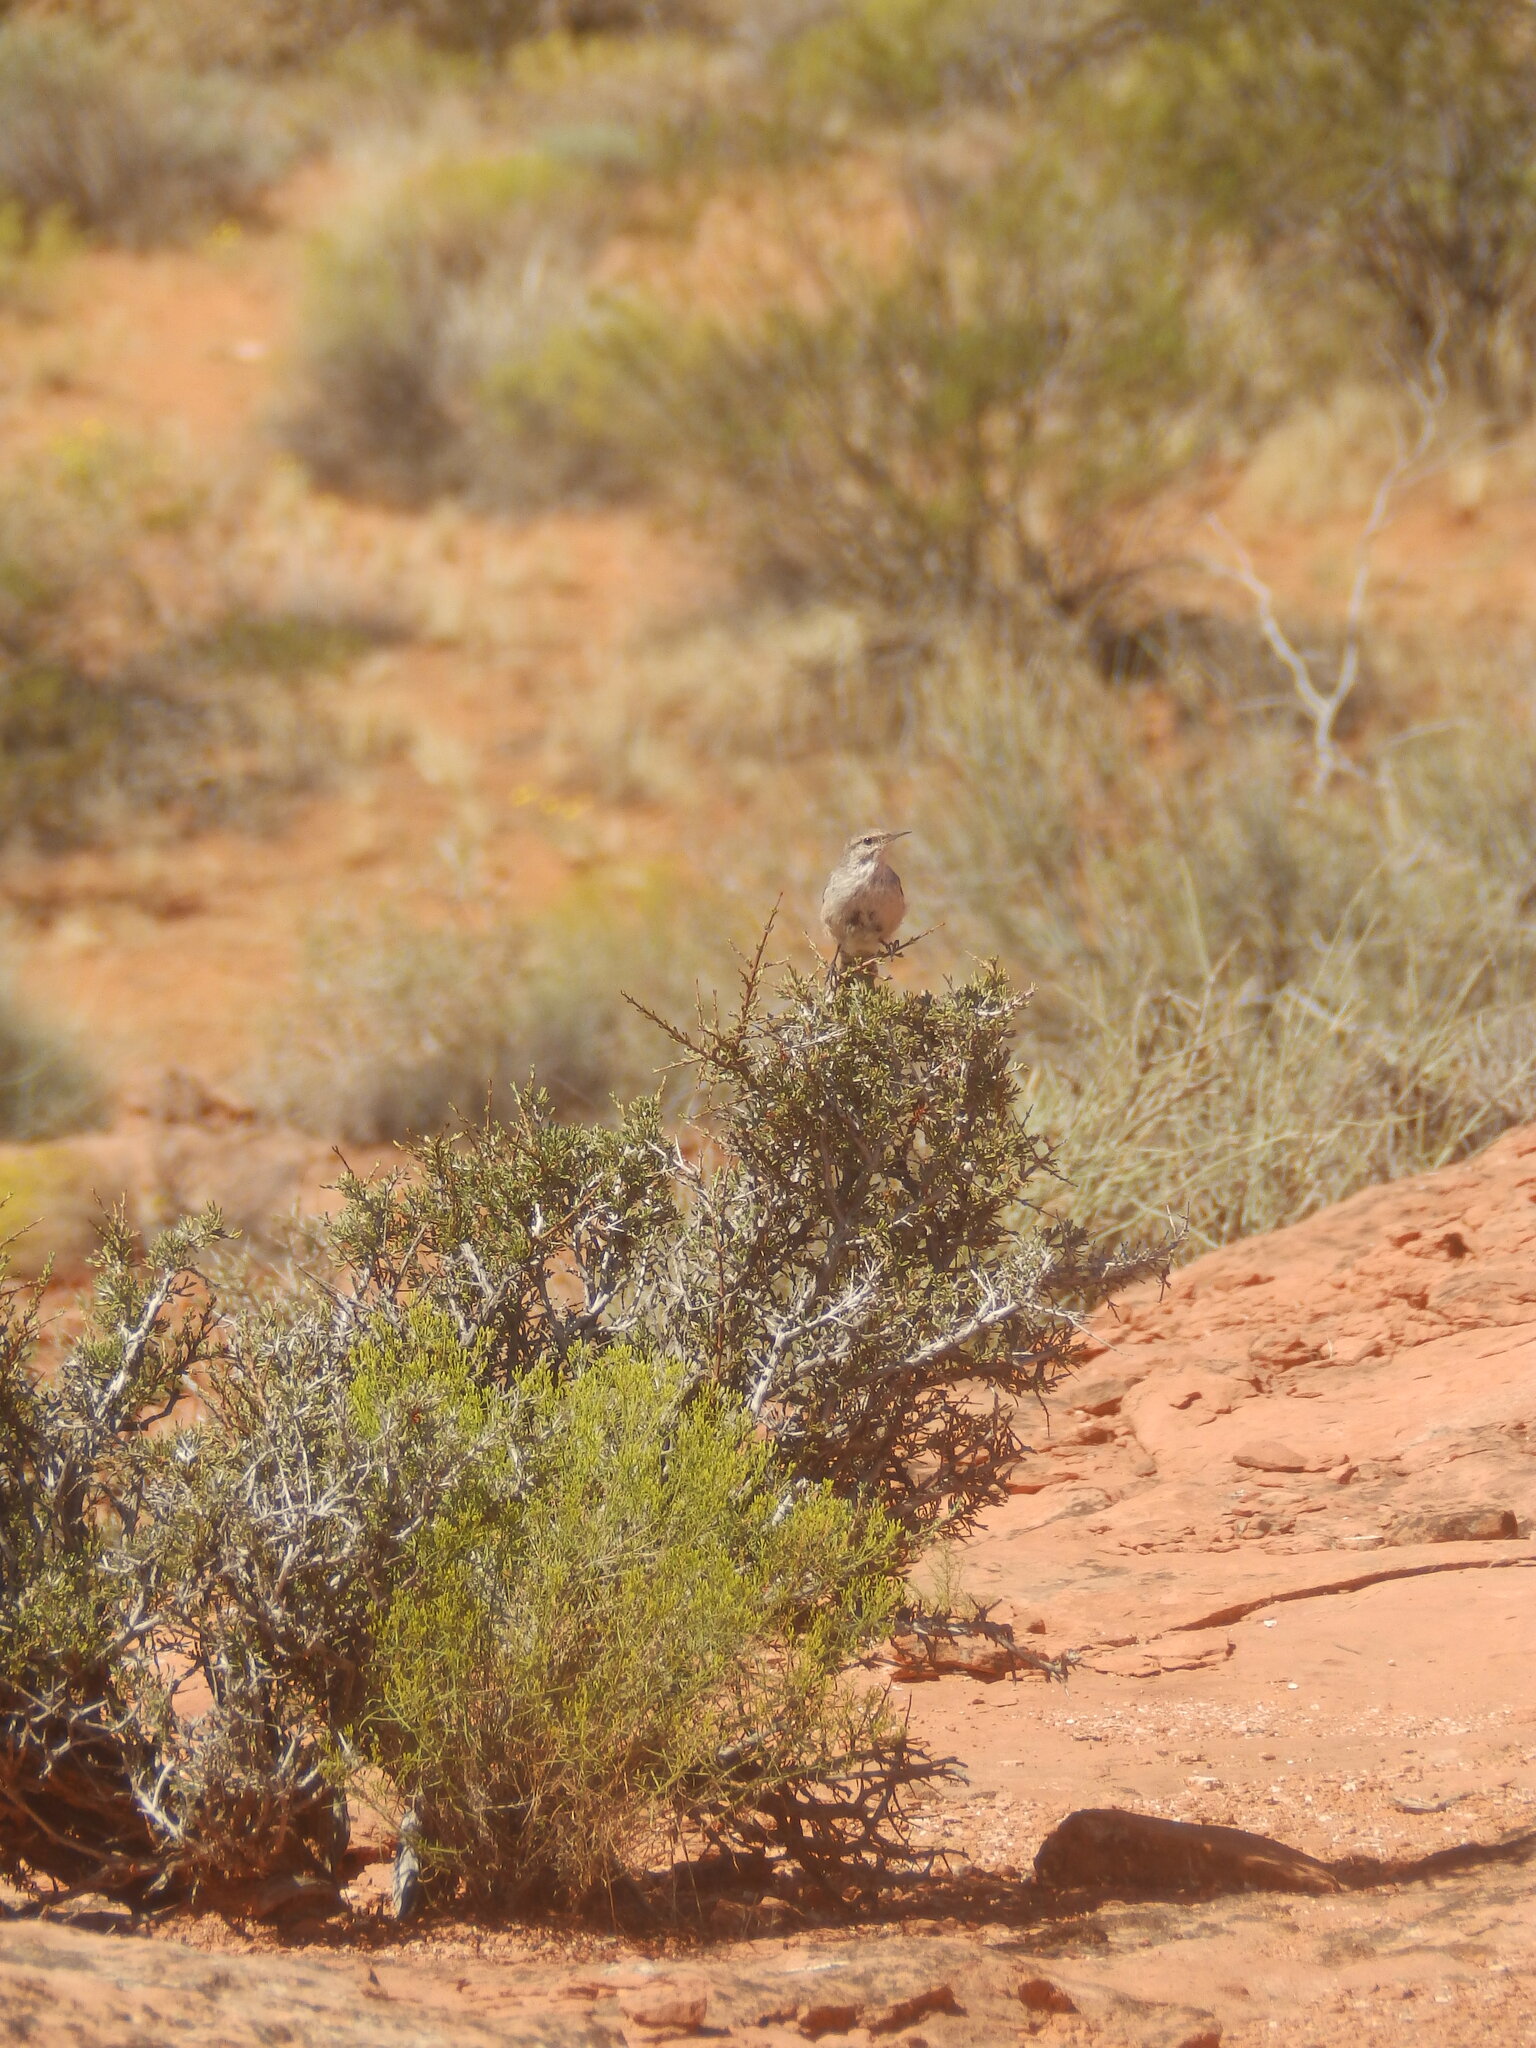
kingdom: Animalia
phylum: Chordata
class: Aves
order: Passeriformes
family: Troglodytidae
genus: Salpinctes
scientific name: Salpinctes obsoletus
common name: Rock wren
